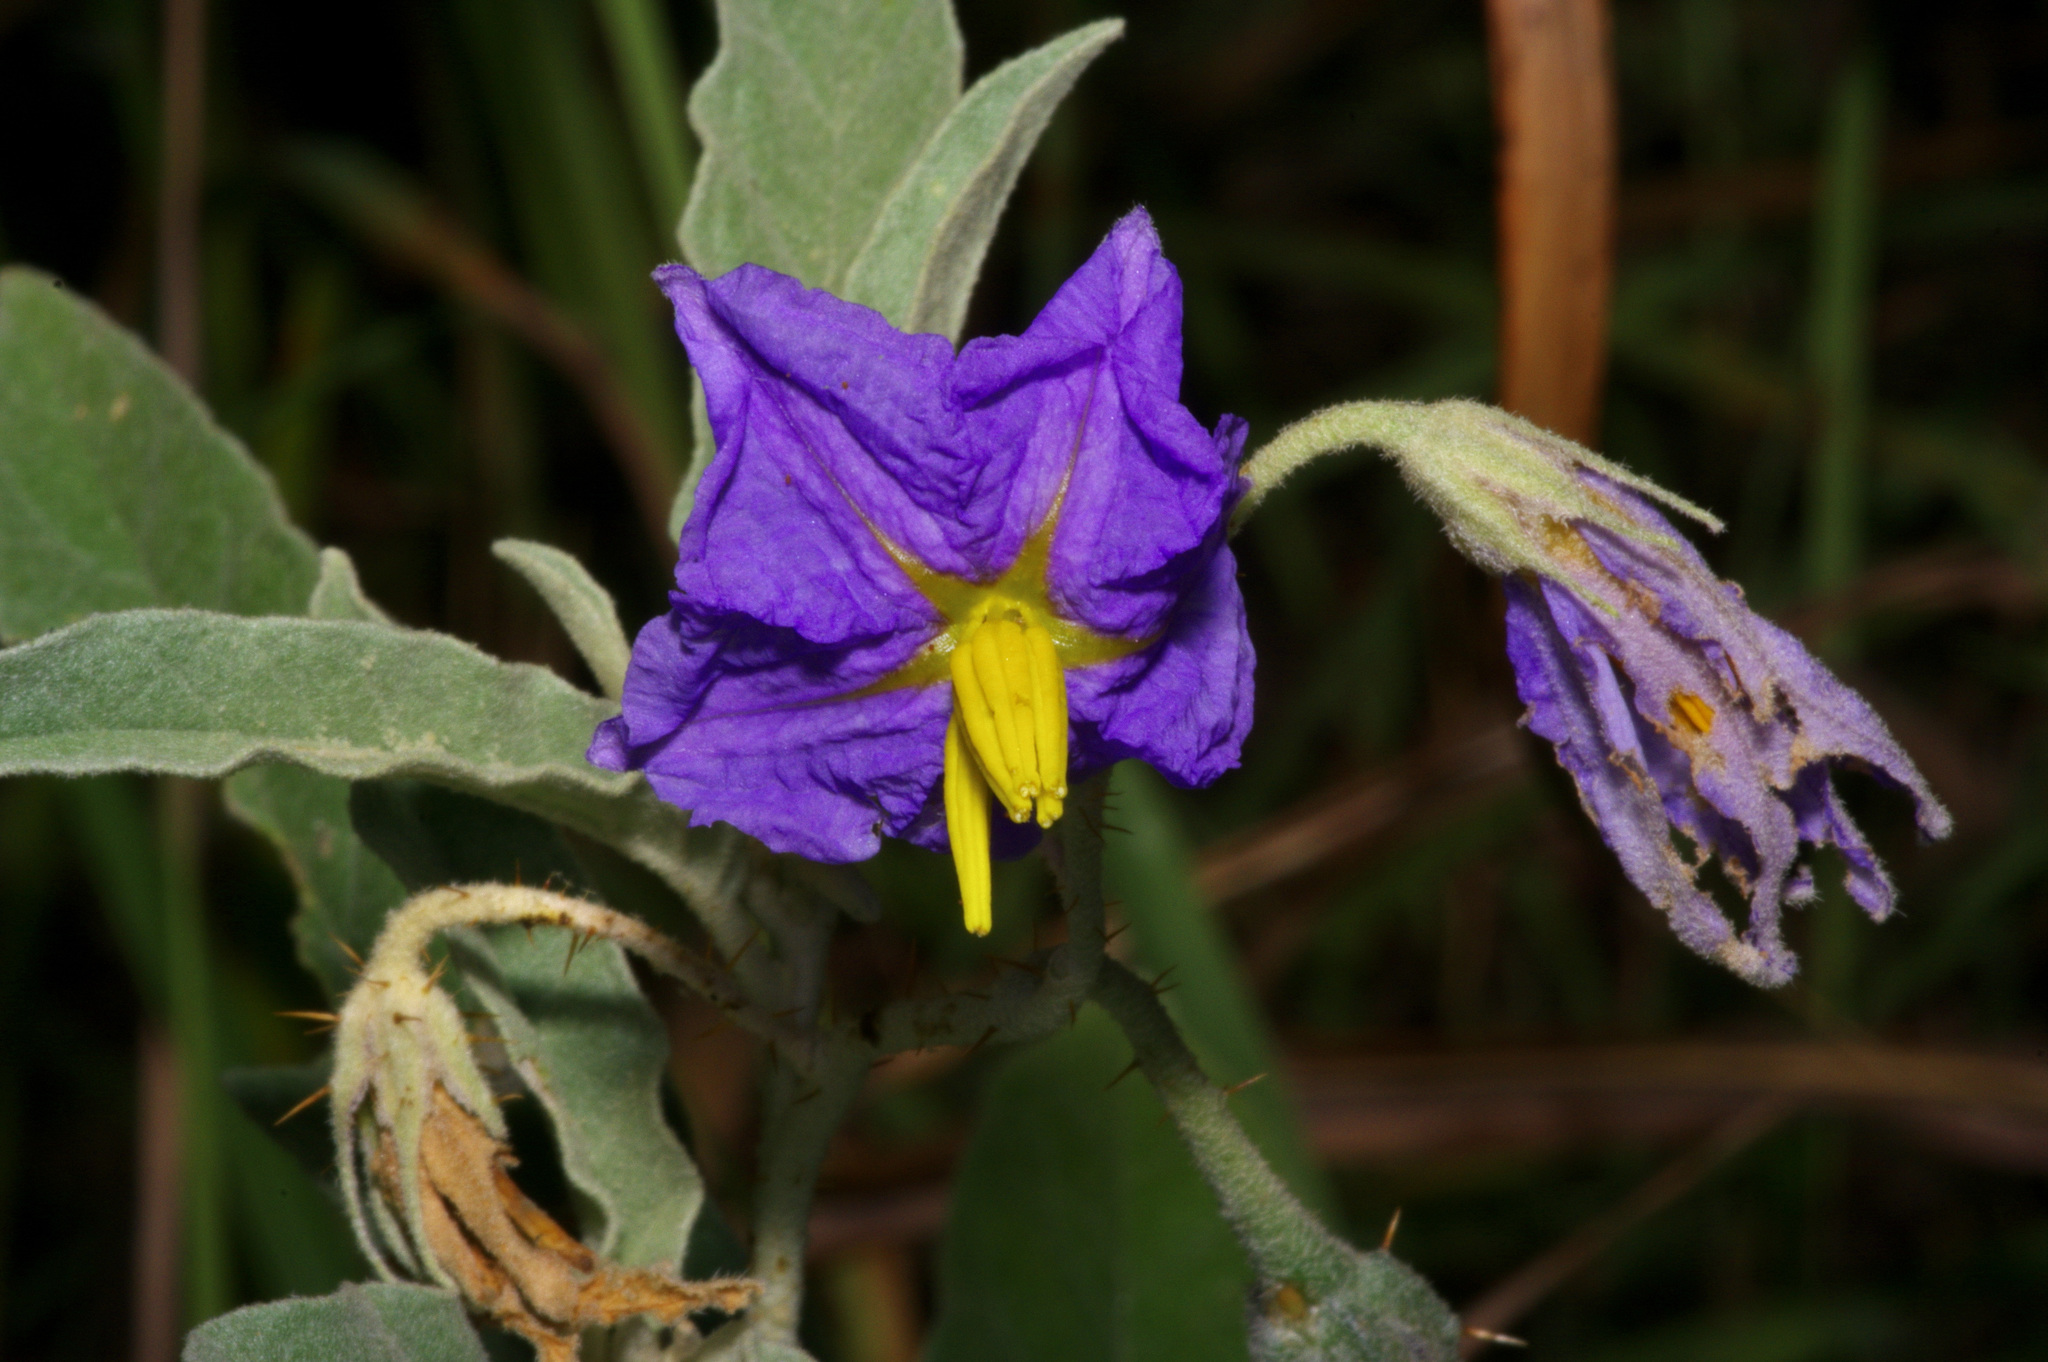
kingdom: Plantae
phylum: Tracheophyta
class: Magnoliopsida
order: Solanales
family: Solanaceae
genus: Solanum
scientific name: Solanum elaeagnifolium
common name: Silverleaf nightshade
